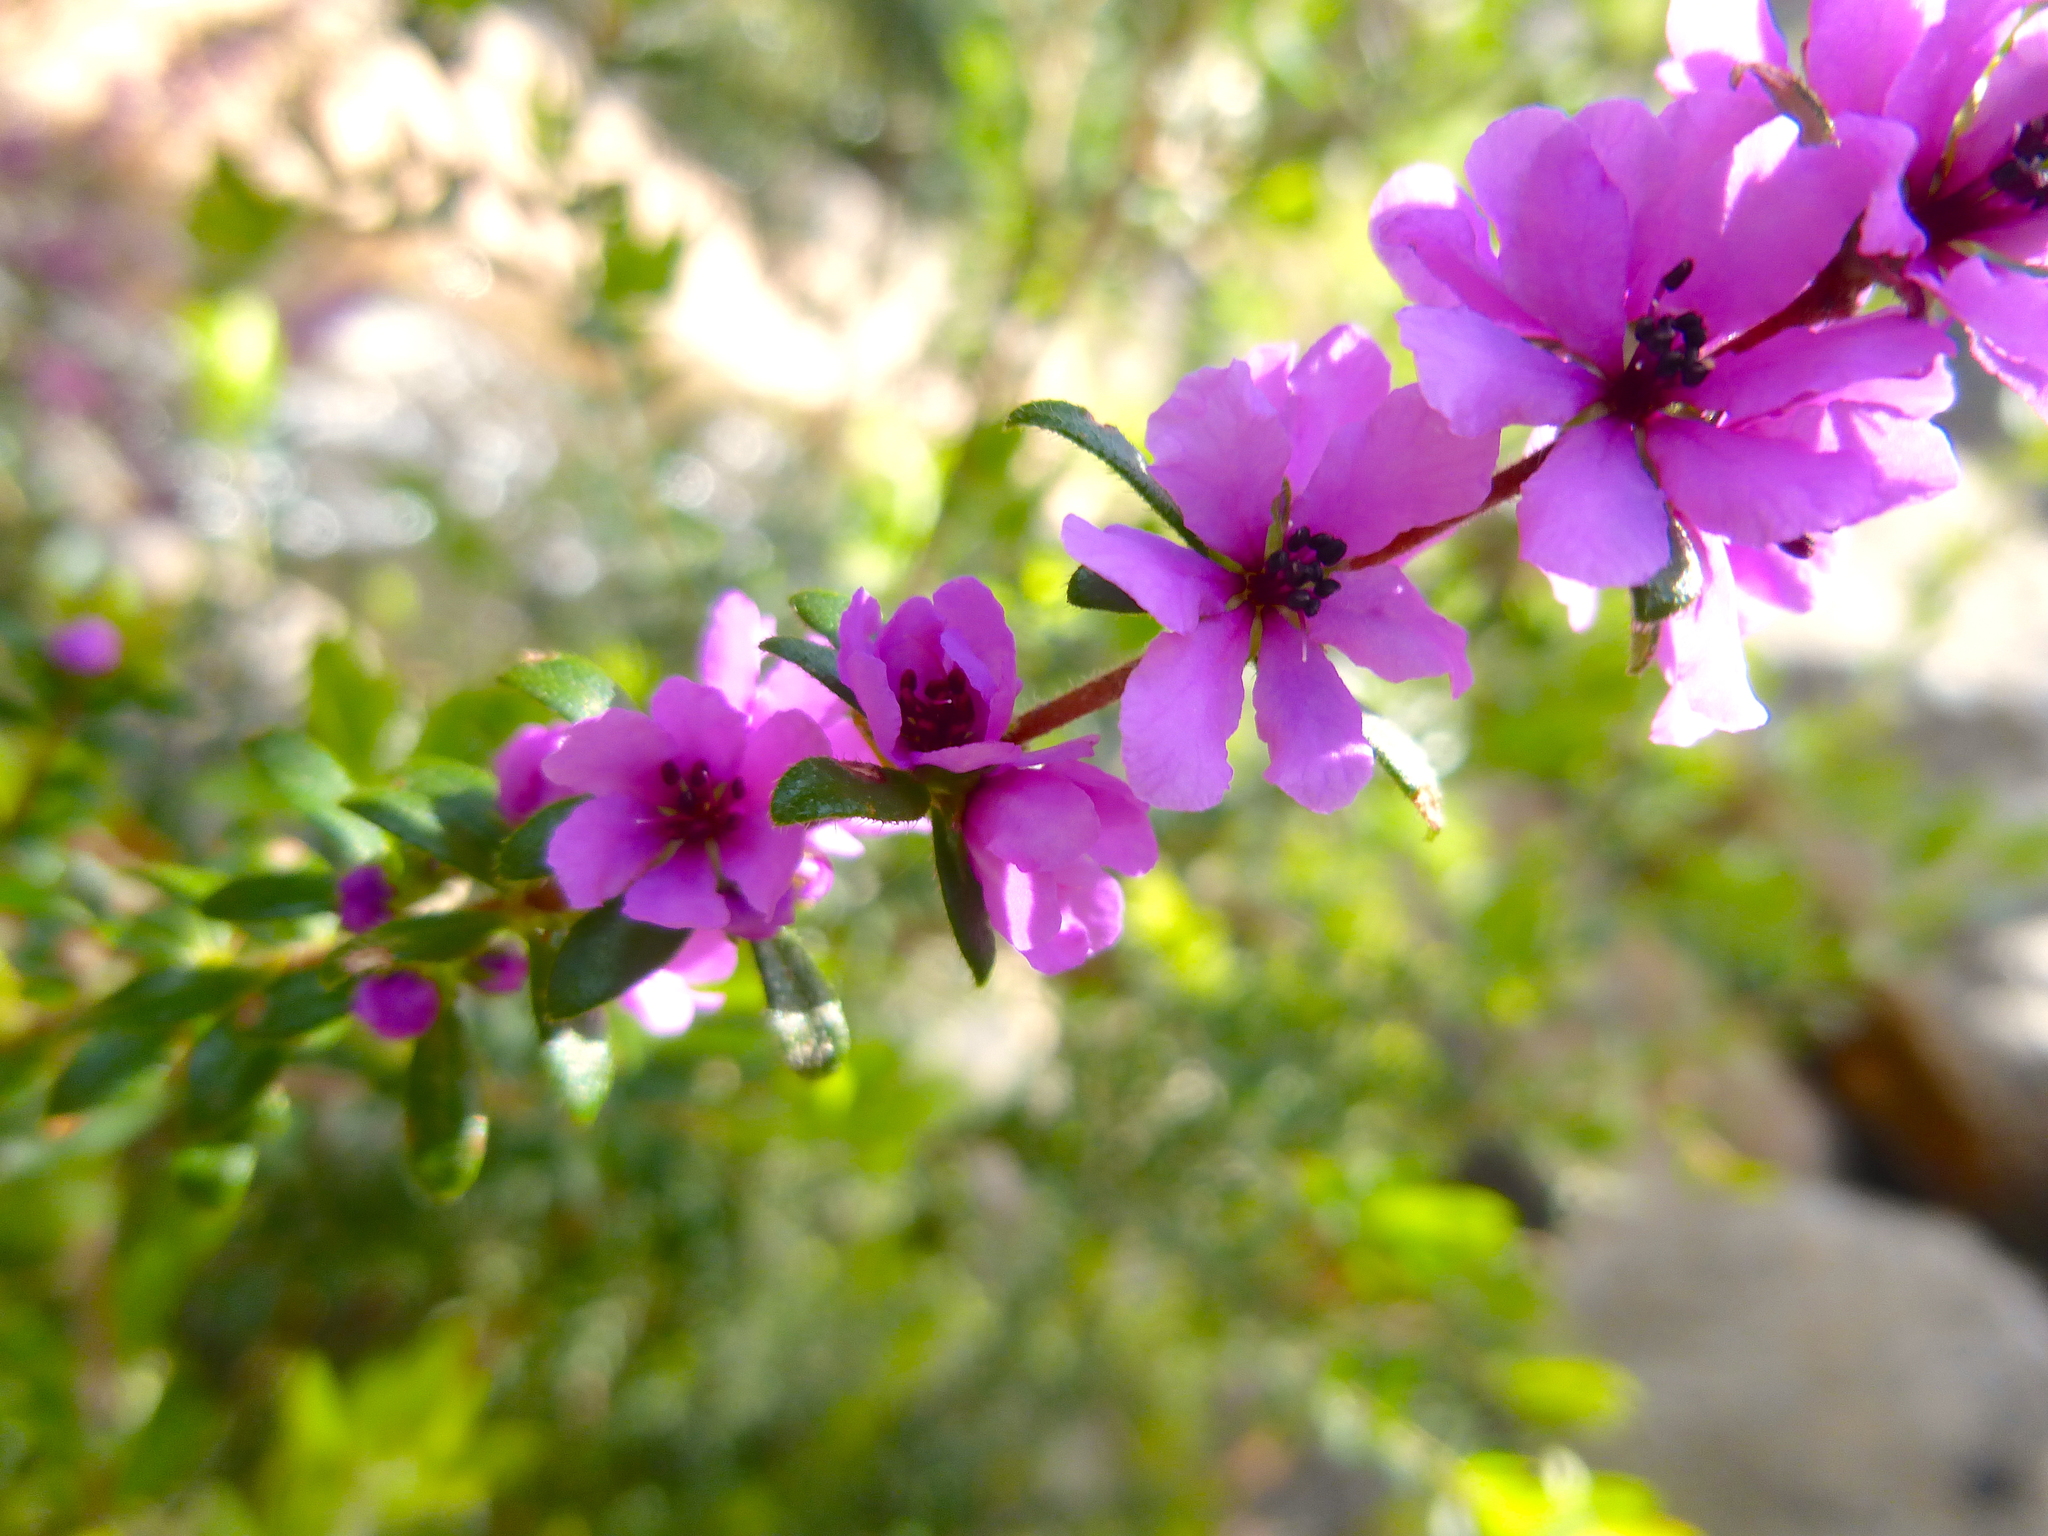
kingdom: Plantae
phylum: Tracheophyta
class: Magnoliopsida
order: Oxalidales
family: Cunoniaceae
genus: Bauera
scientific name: Bauera sessiliflora
